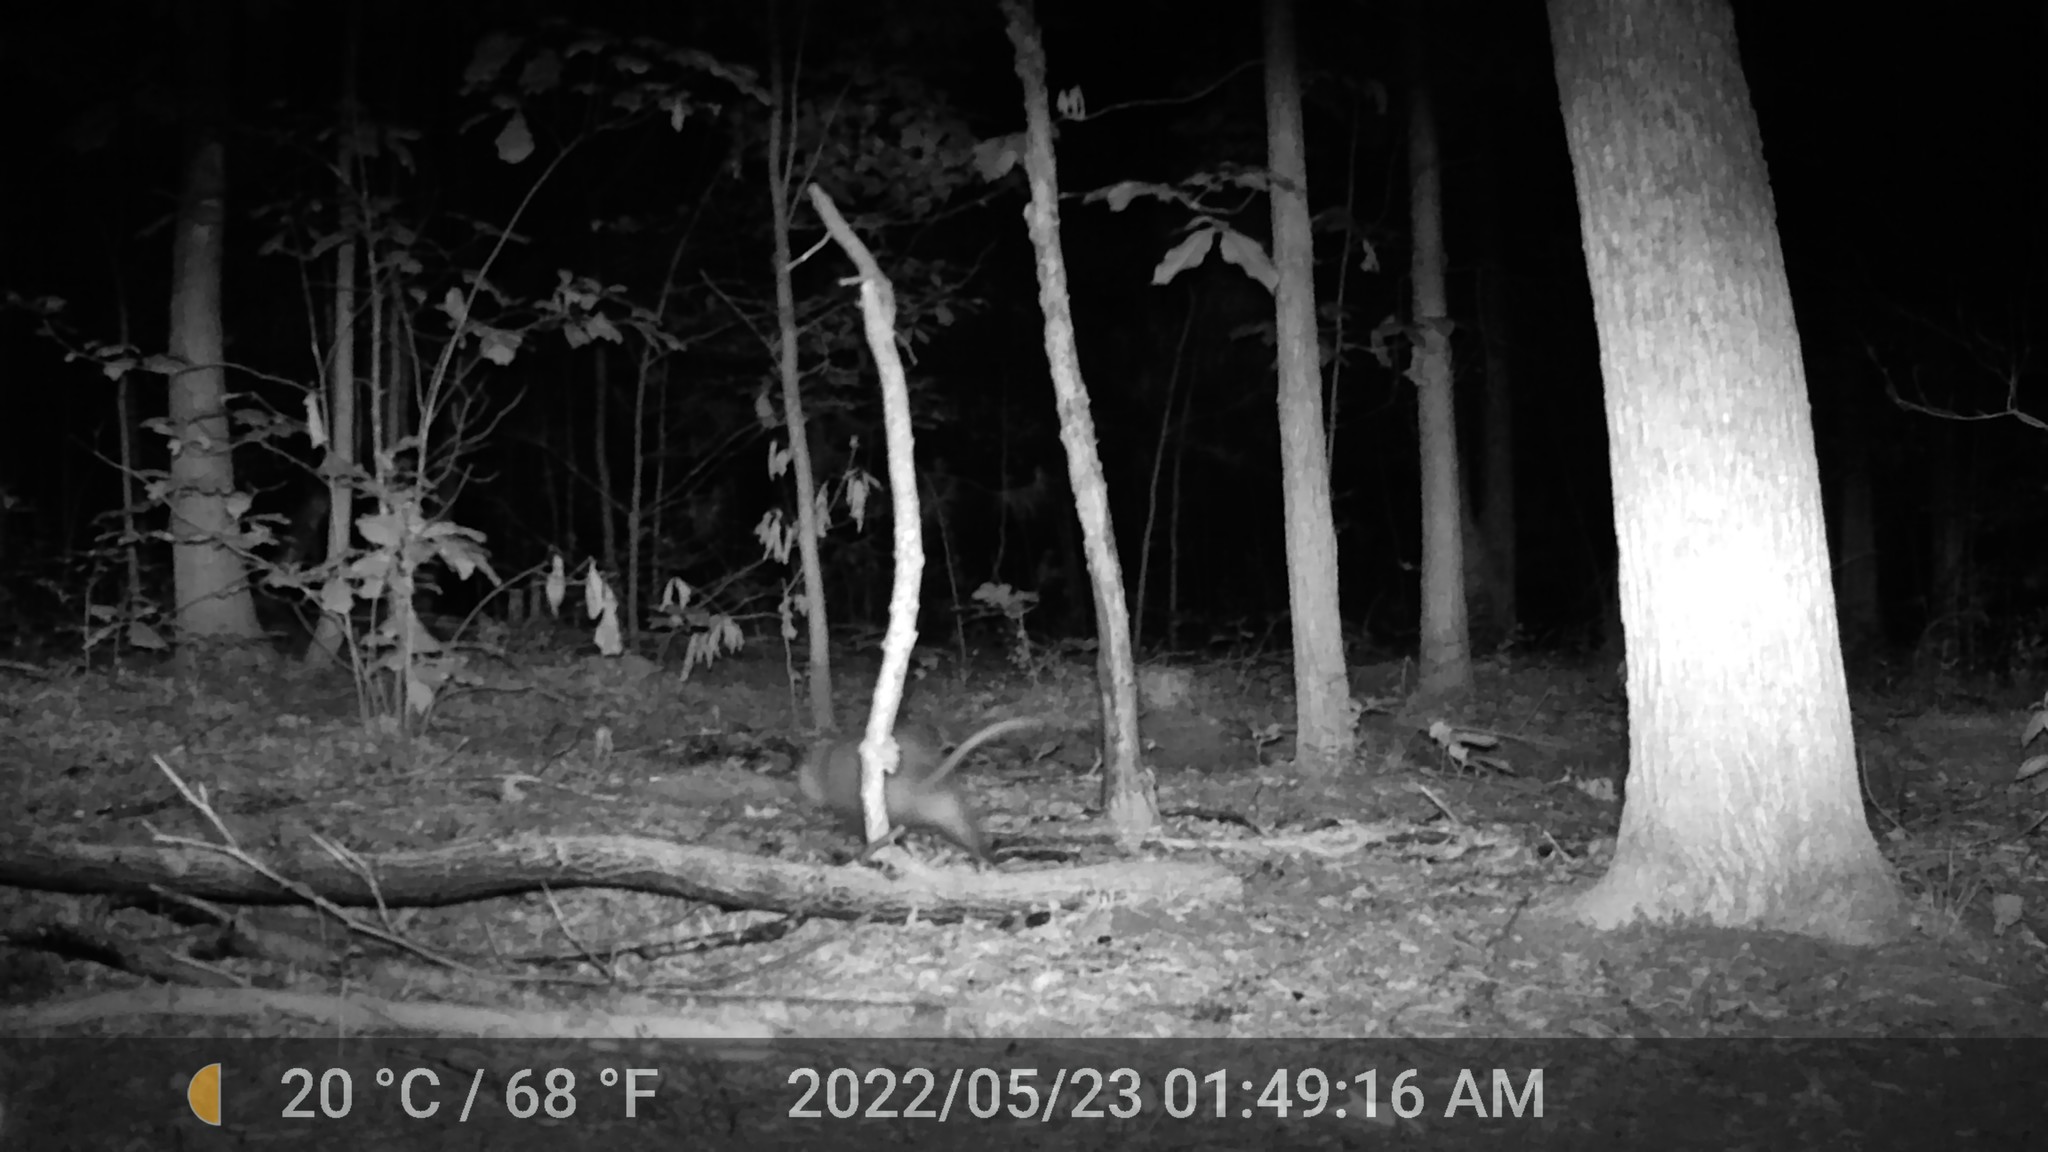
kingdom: Animalia
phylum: Chordata
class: Mammalia
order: Didelphimorphia
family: Didelphidae
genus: Didelphis
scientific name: Didelphis virginiana
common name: Virginia opossum
